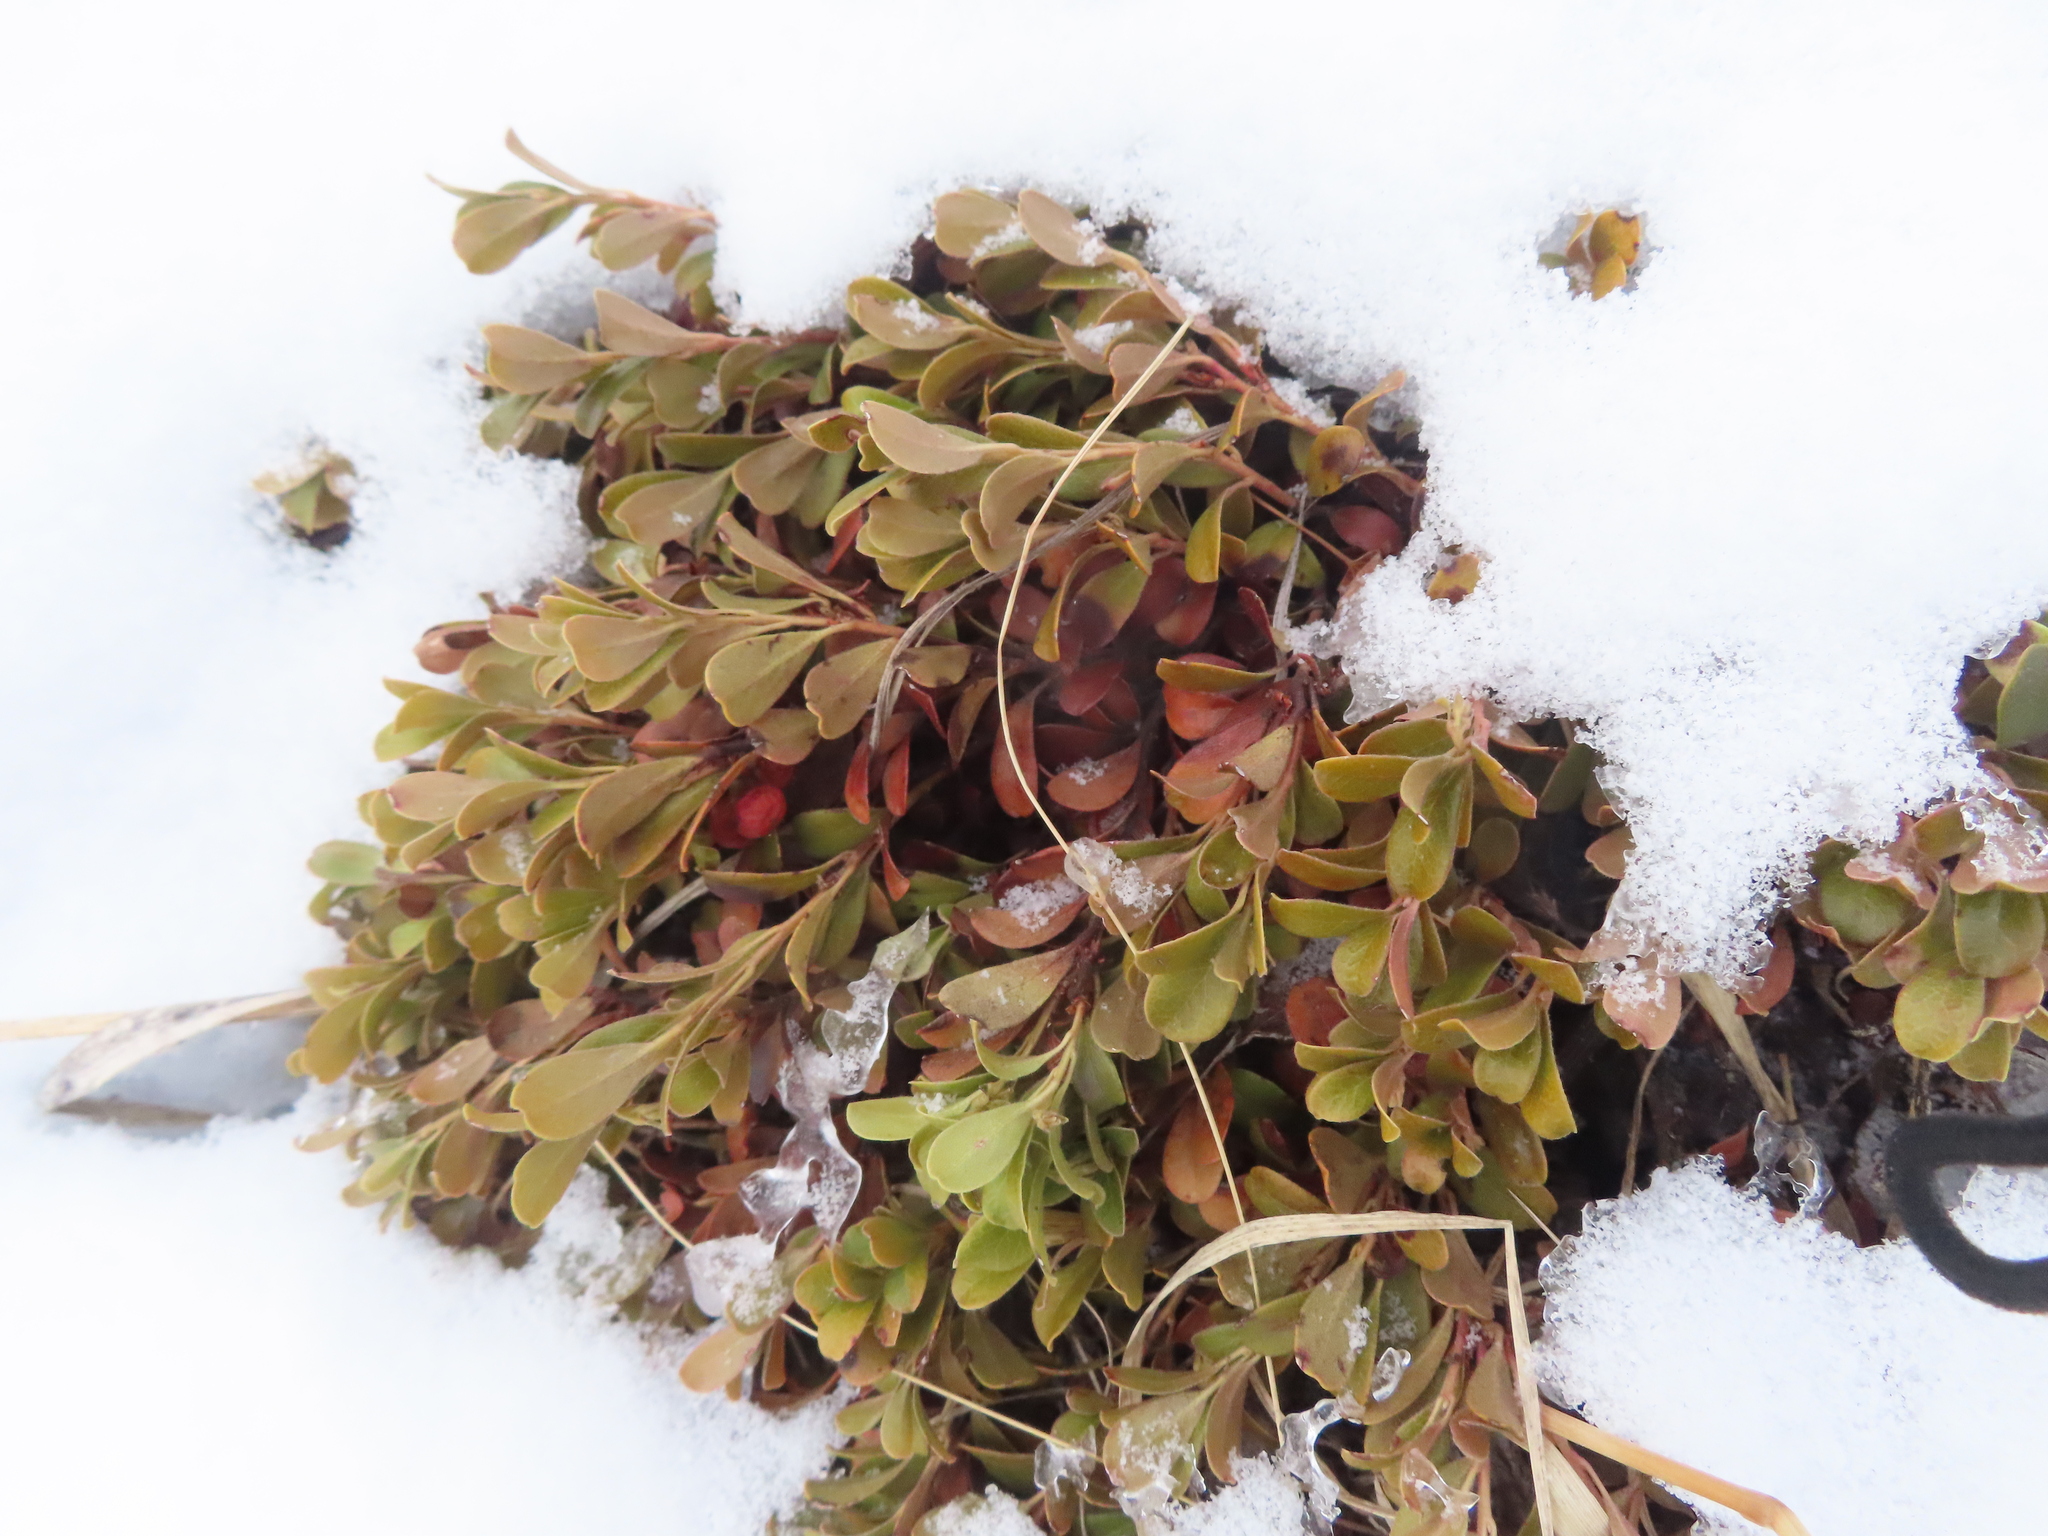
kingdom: Plantae
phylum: Tracheophyta
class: Magnoliopsida
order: Ericales
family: Ericaceae
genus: Arctostaphylos
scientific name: Arctostaphylos uva-ursi
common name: Bearberry
